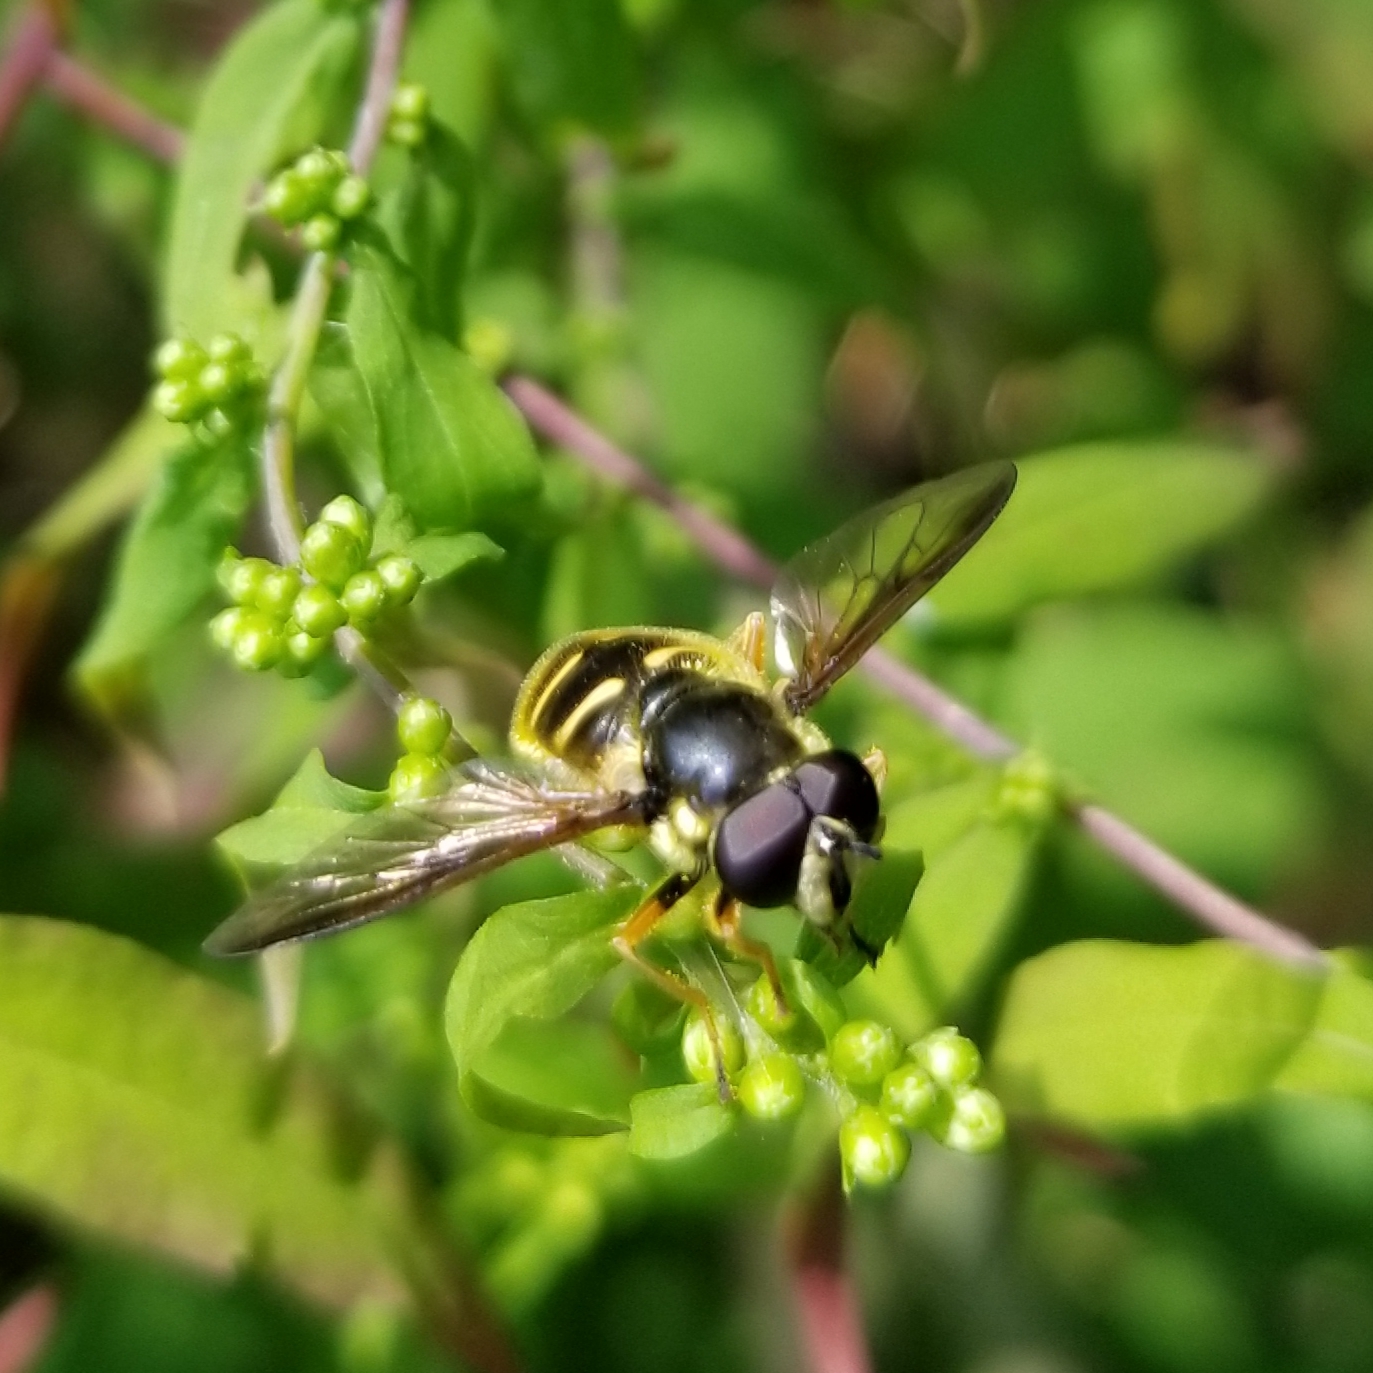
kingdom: Animalia
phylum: Arthropoda
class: Insecta
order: Diptera
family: Syrphidae
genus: Sericomyia
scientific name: Sericomyia chrysotoxoides
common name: Oblique-banded pond fly
